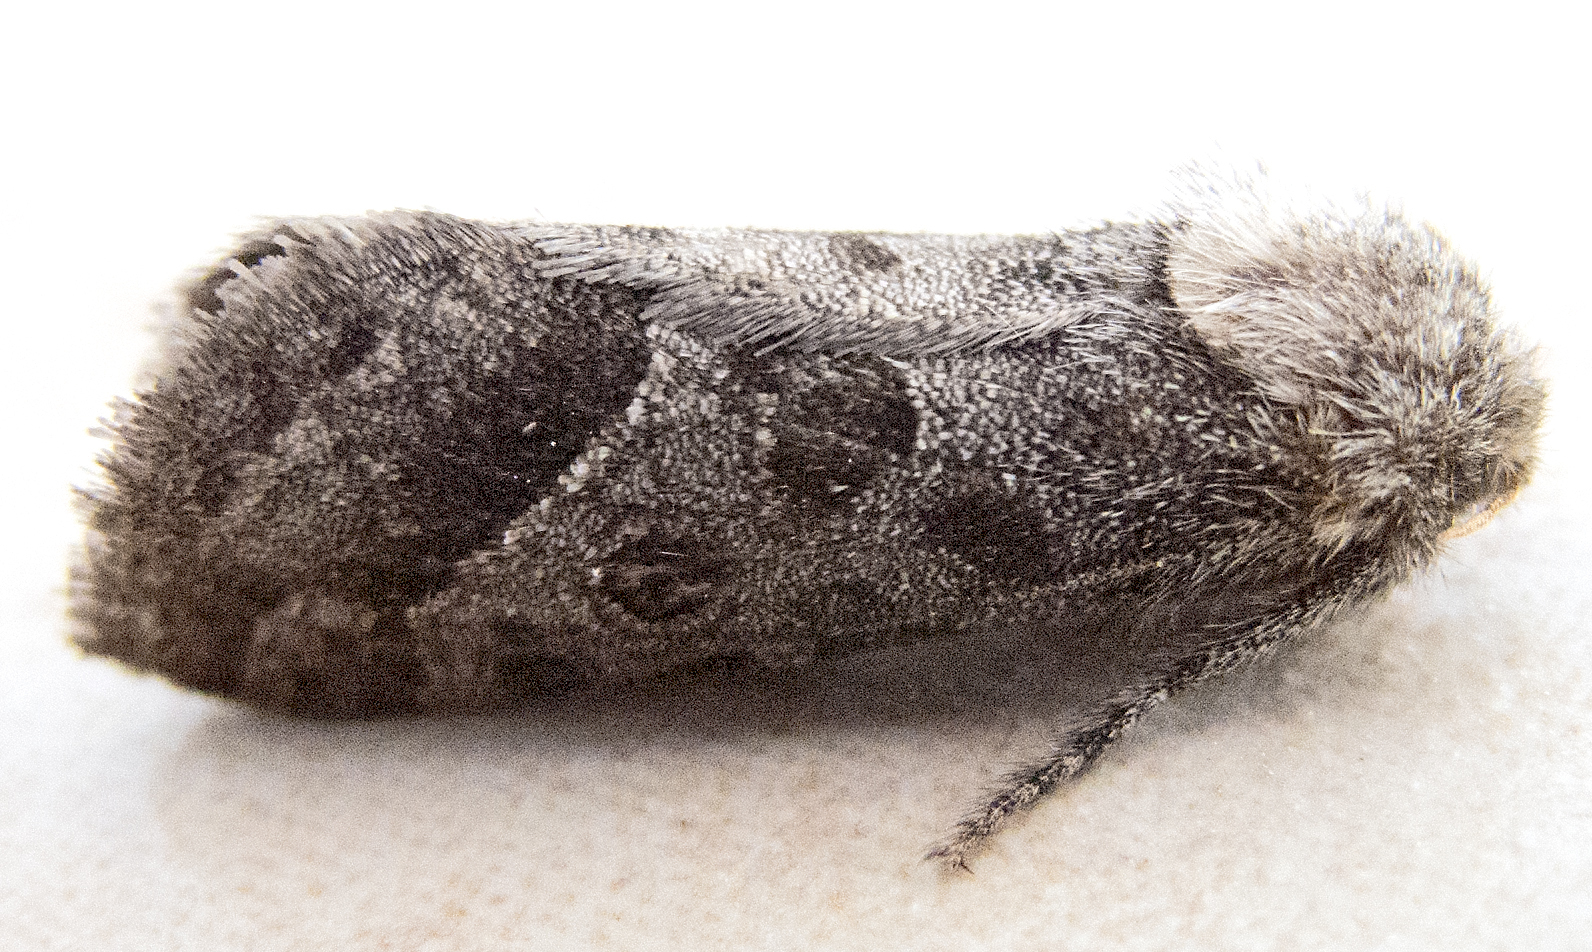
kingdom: Animalia
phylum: Arthropoda
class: Insecta
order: Lepidoptera
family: Hepialidae
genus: Triodia
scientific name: Triodia amasinus
